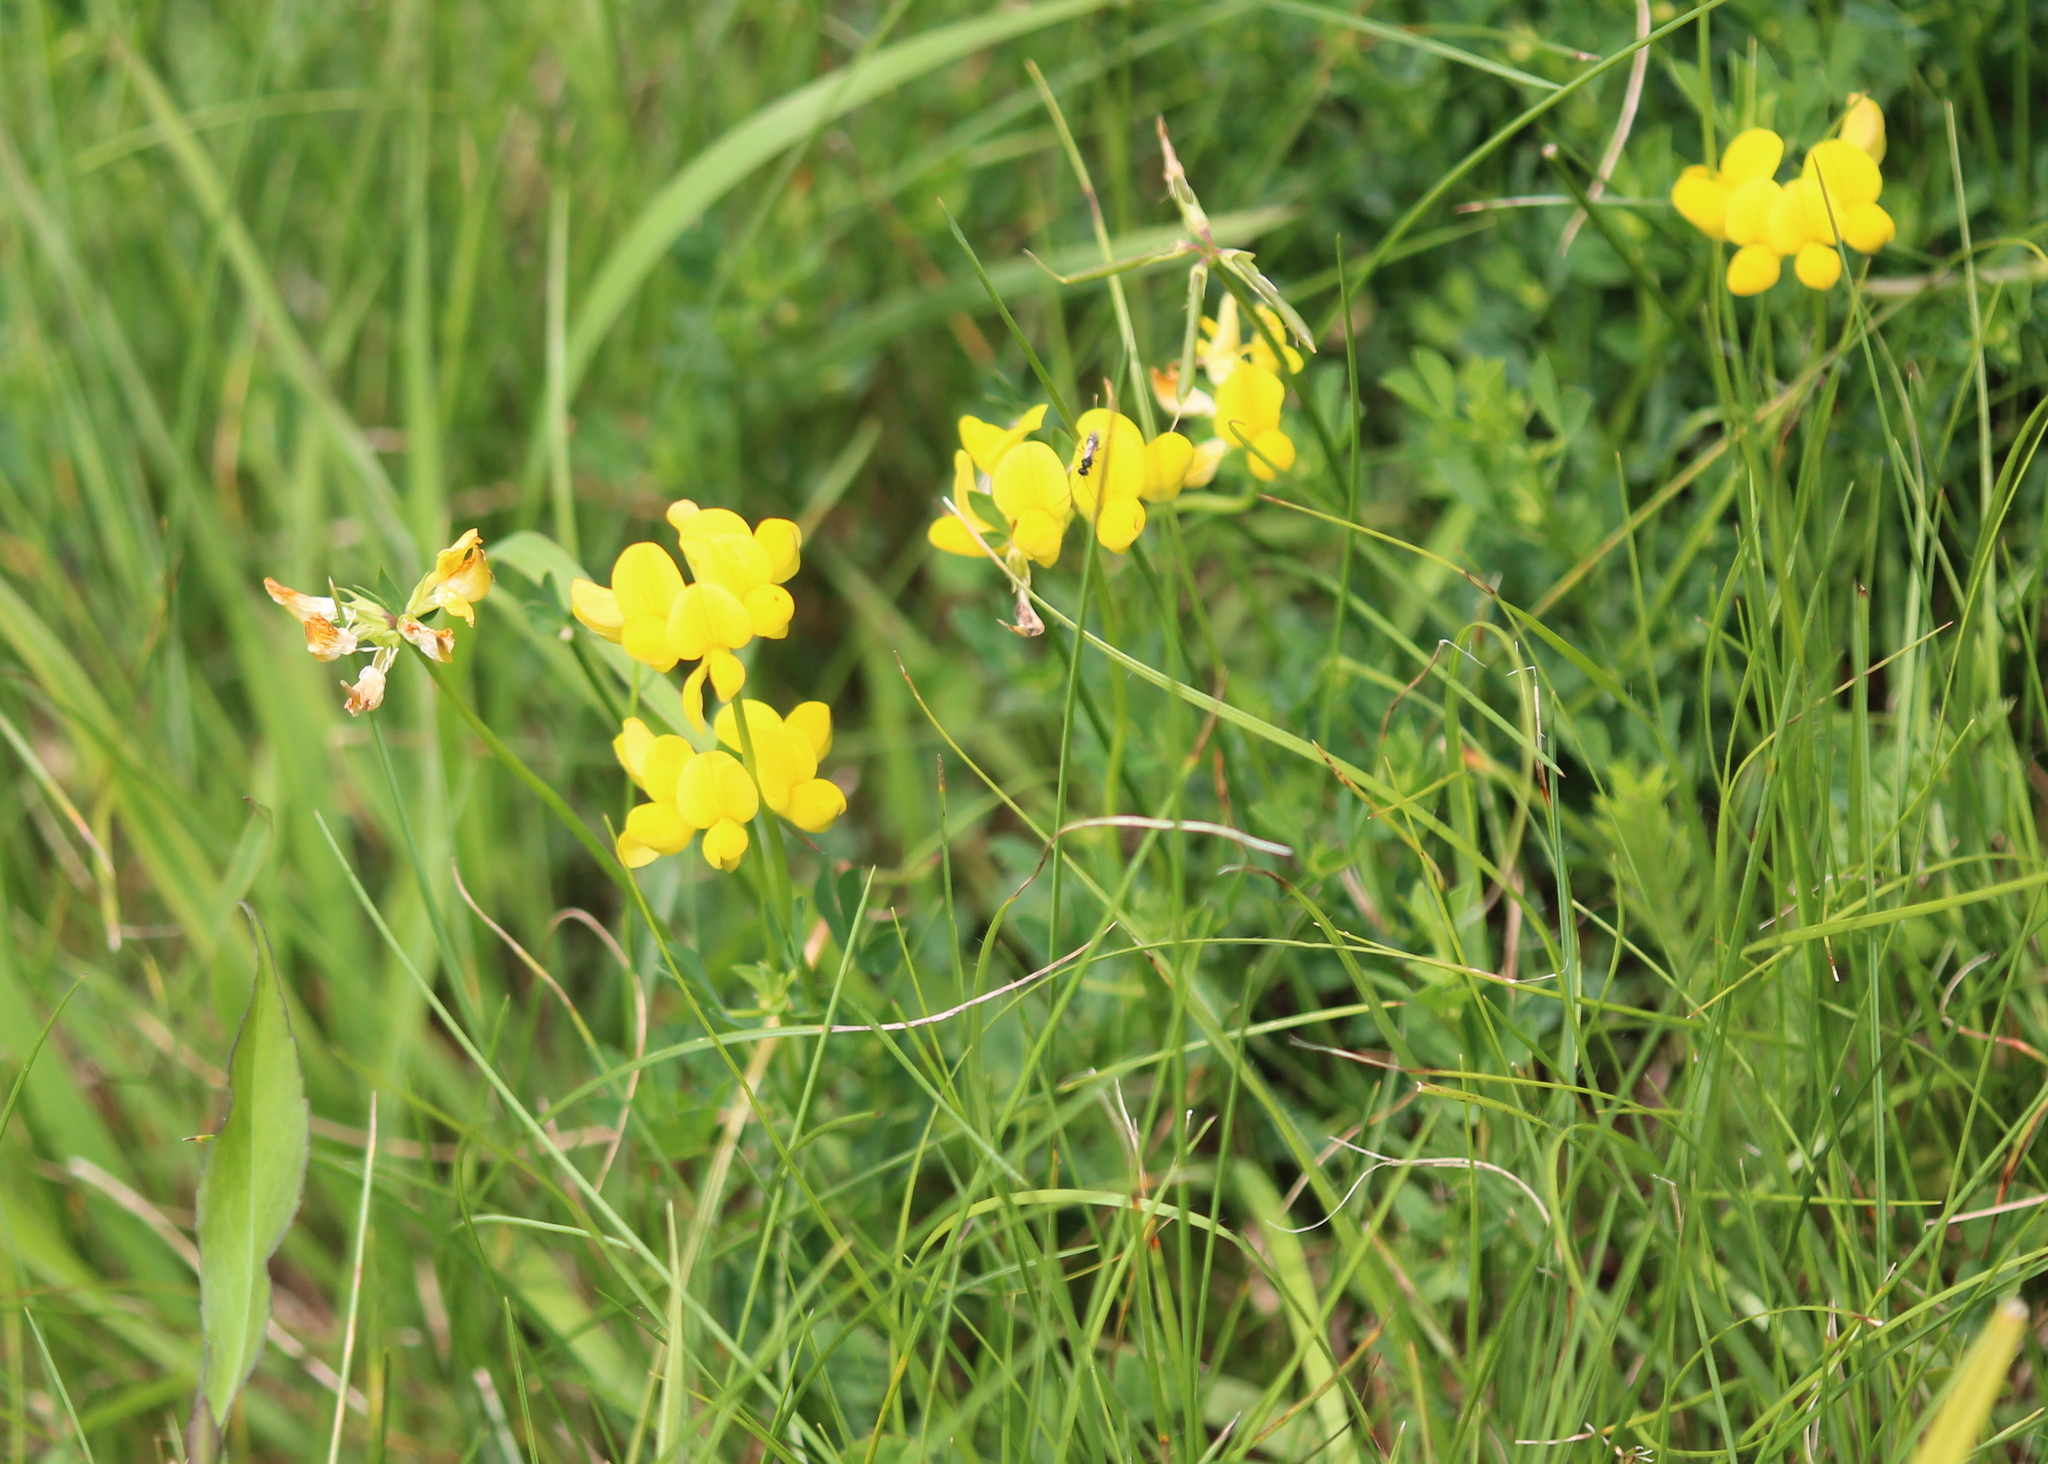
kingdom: Plantae
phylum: Tracheophyta
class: Magnoliopsida
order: Fabales
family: Fabaceae
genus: Lotus
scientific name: Lotus corniculatus
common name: Common bird's-foot-trefoil
